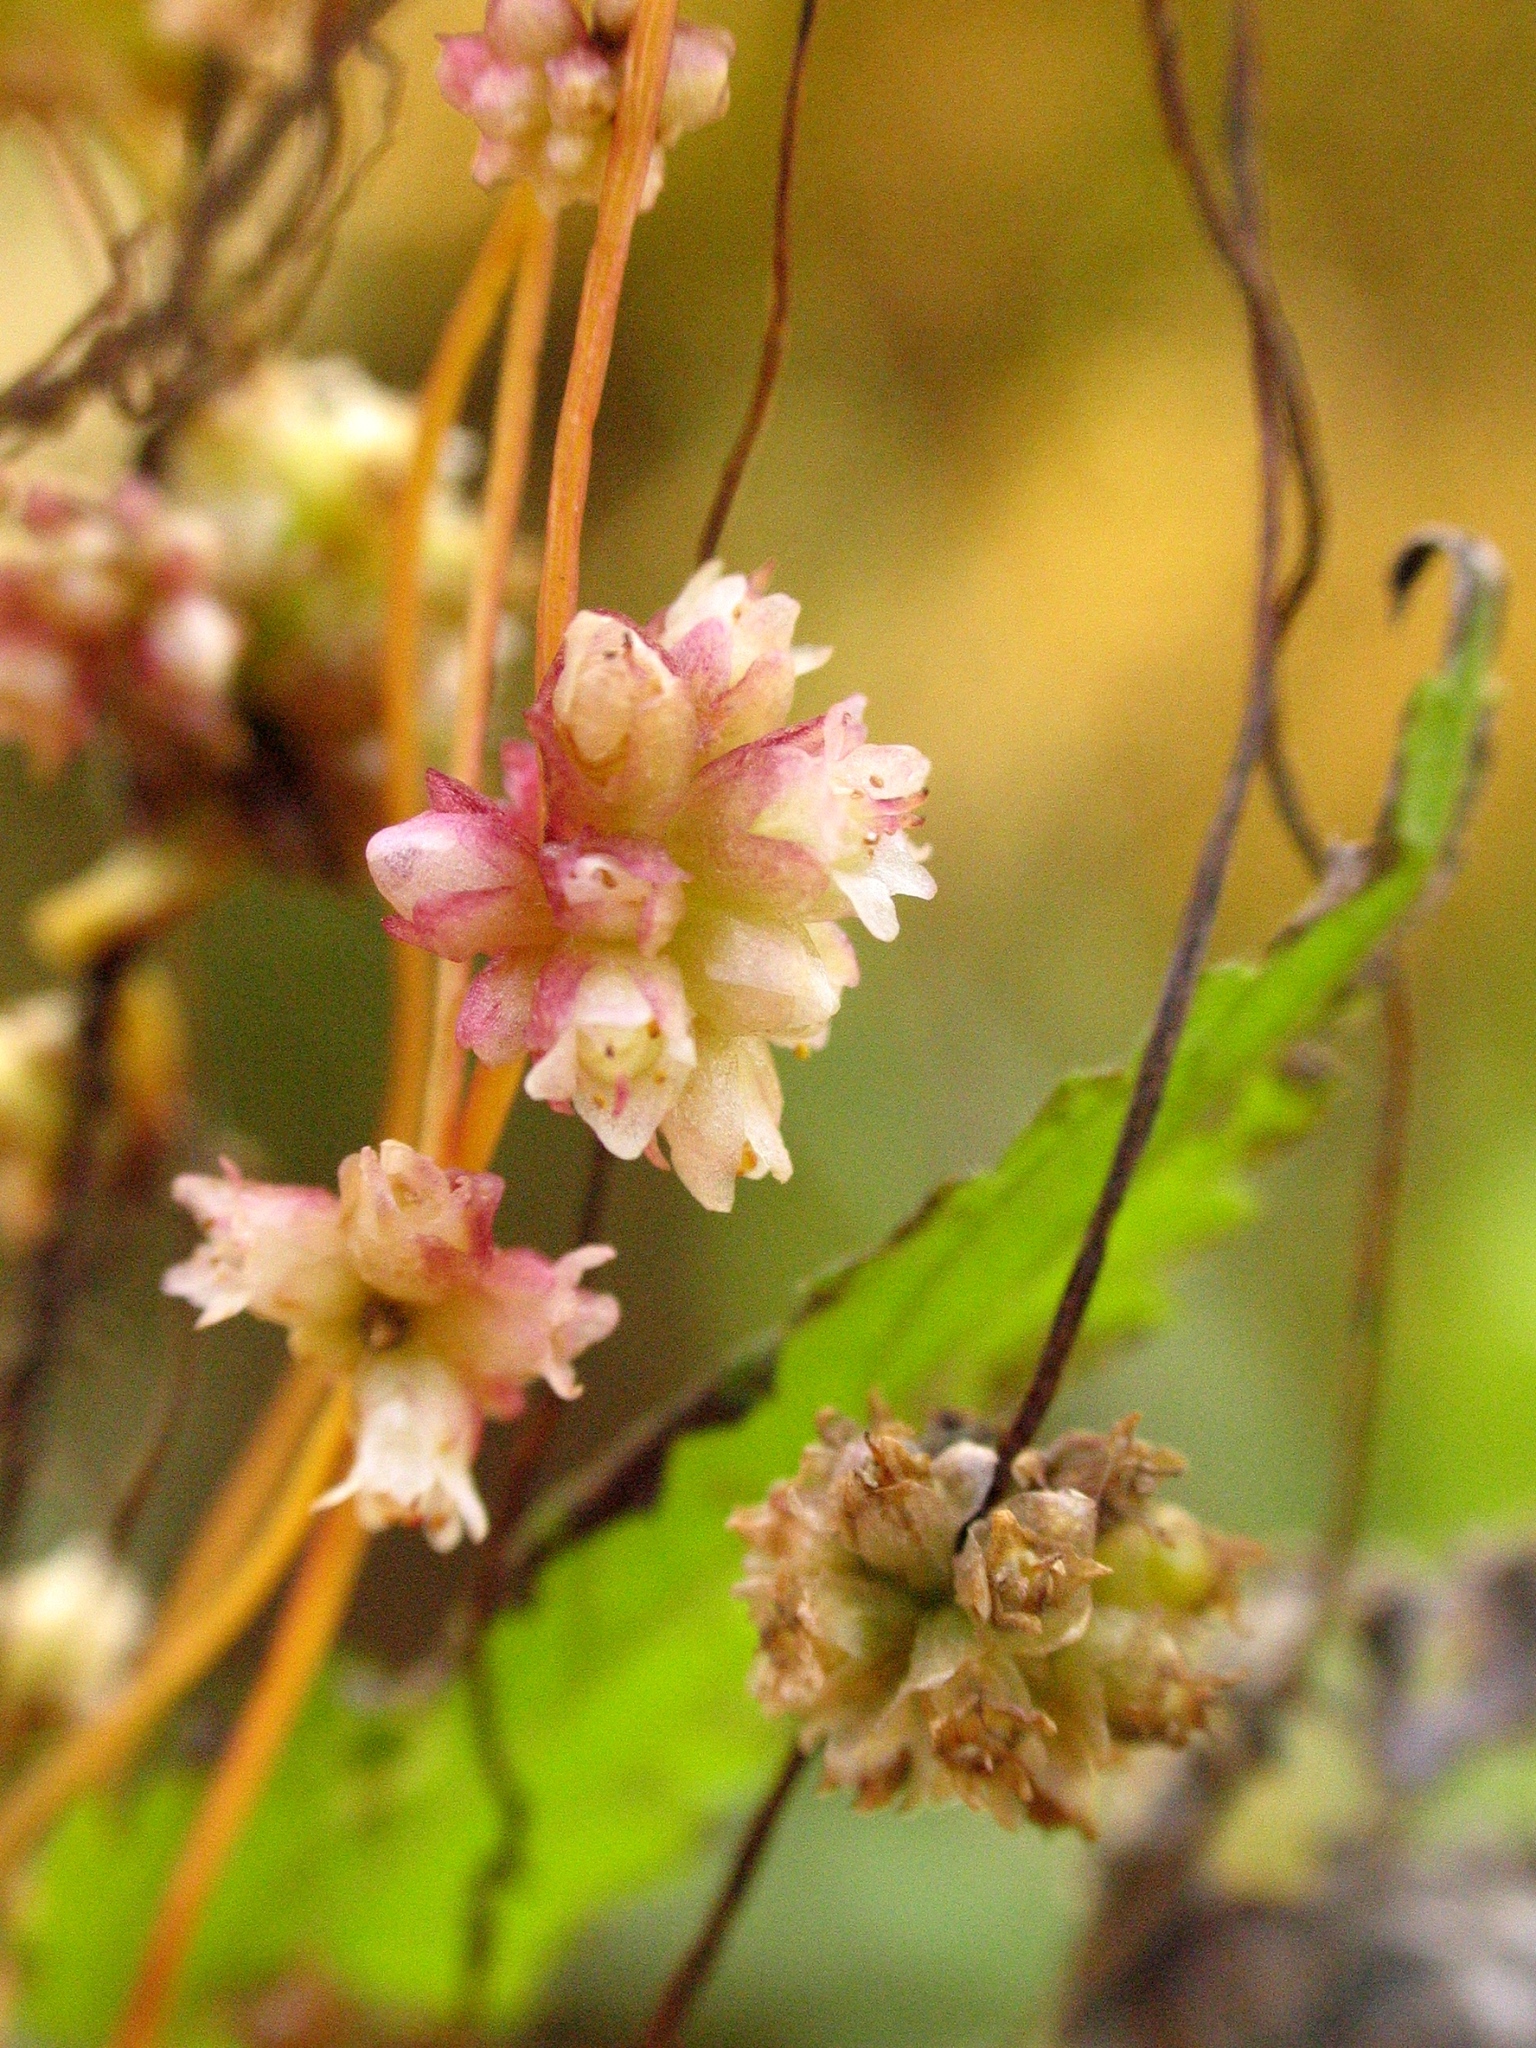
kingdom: Plantae
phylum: Tracheophyta
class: Magnoliopsida
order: Solanales
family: Convolvulaceae
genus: Cuscuta
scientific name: Cuscuta europaea
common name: Greater dodder
